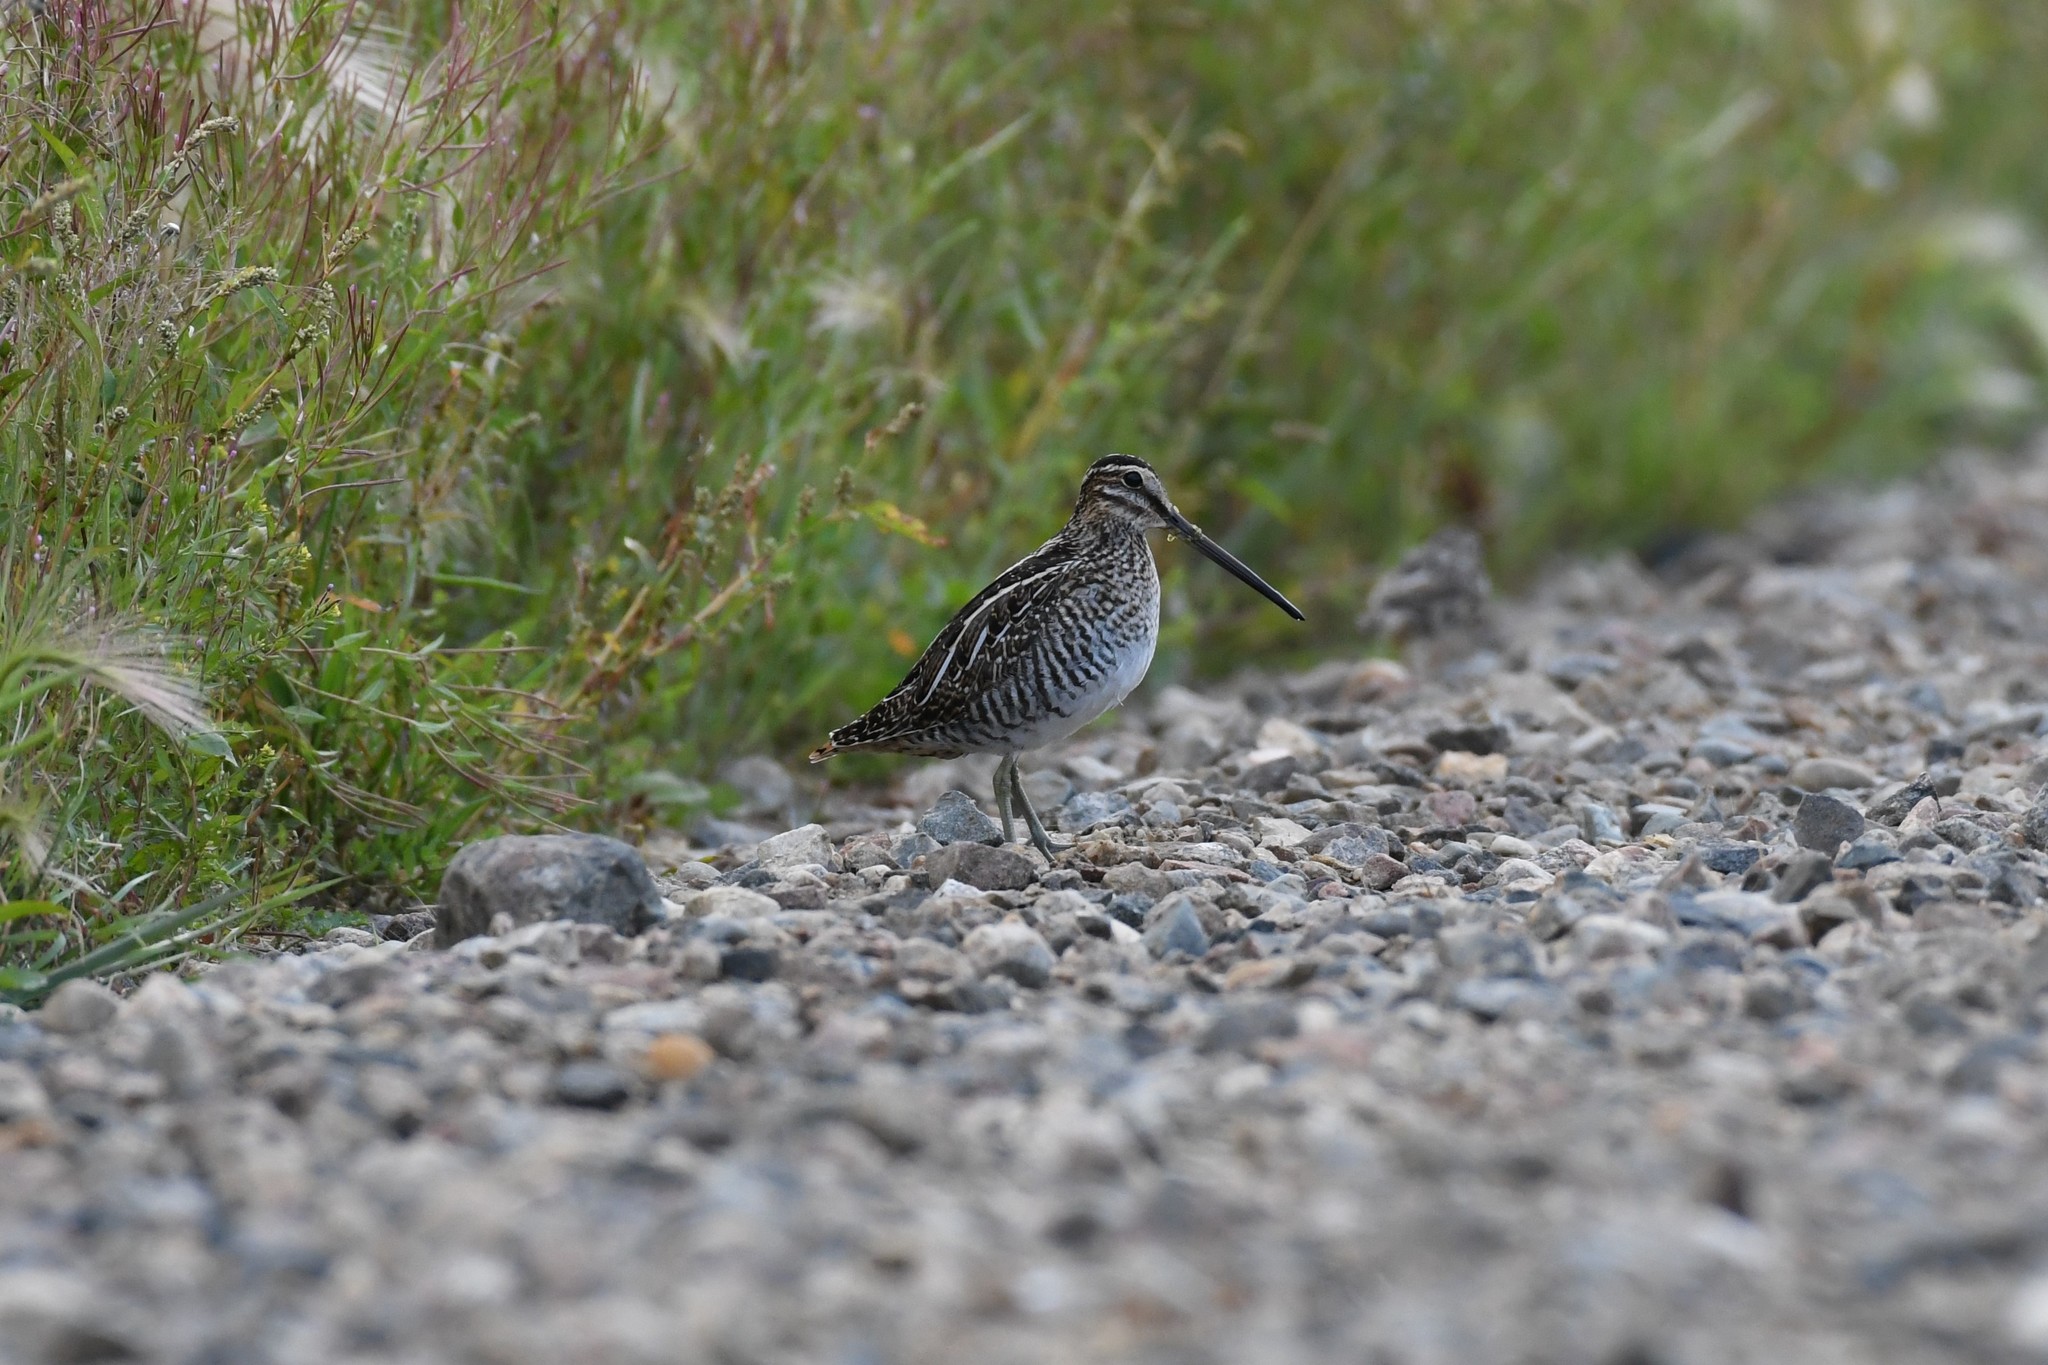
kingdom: Animalia
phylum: Chordata
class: Aves
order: Charadriiformes
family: Scolopacidae
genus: Gallinago
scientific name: Gallinago delicata
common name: Wilson's snipe
